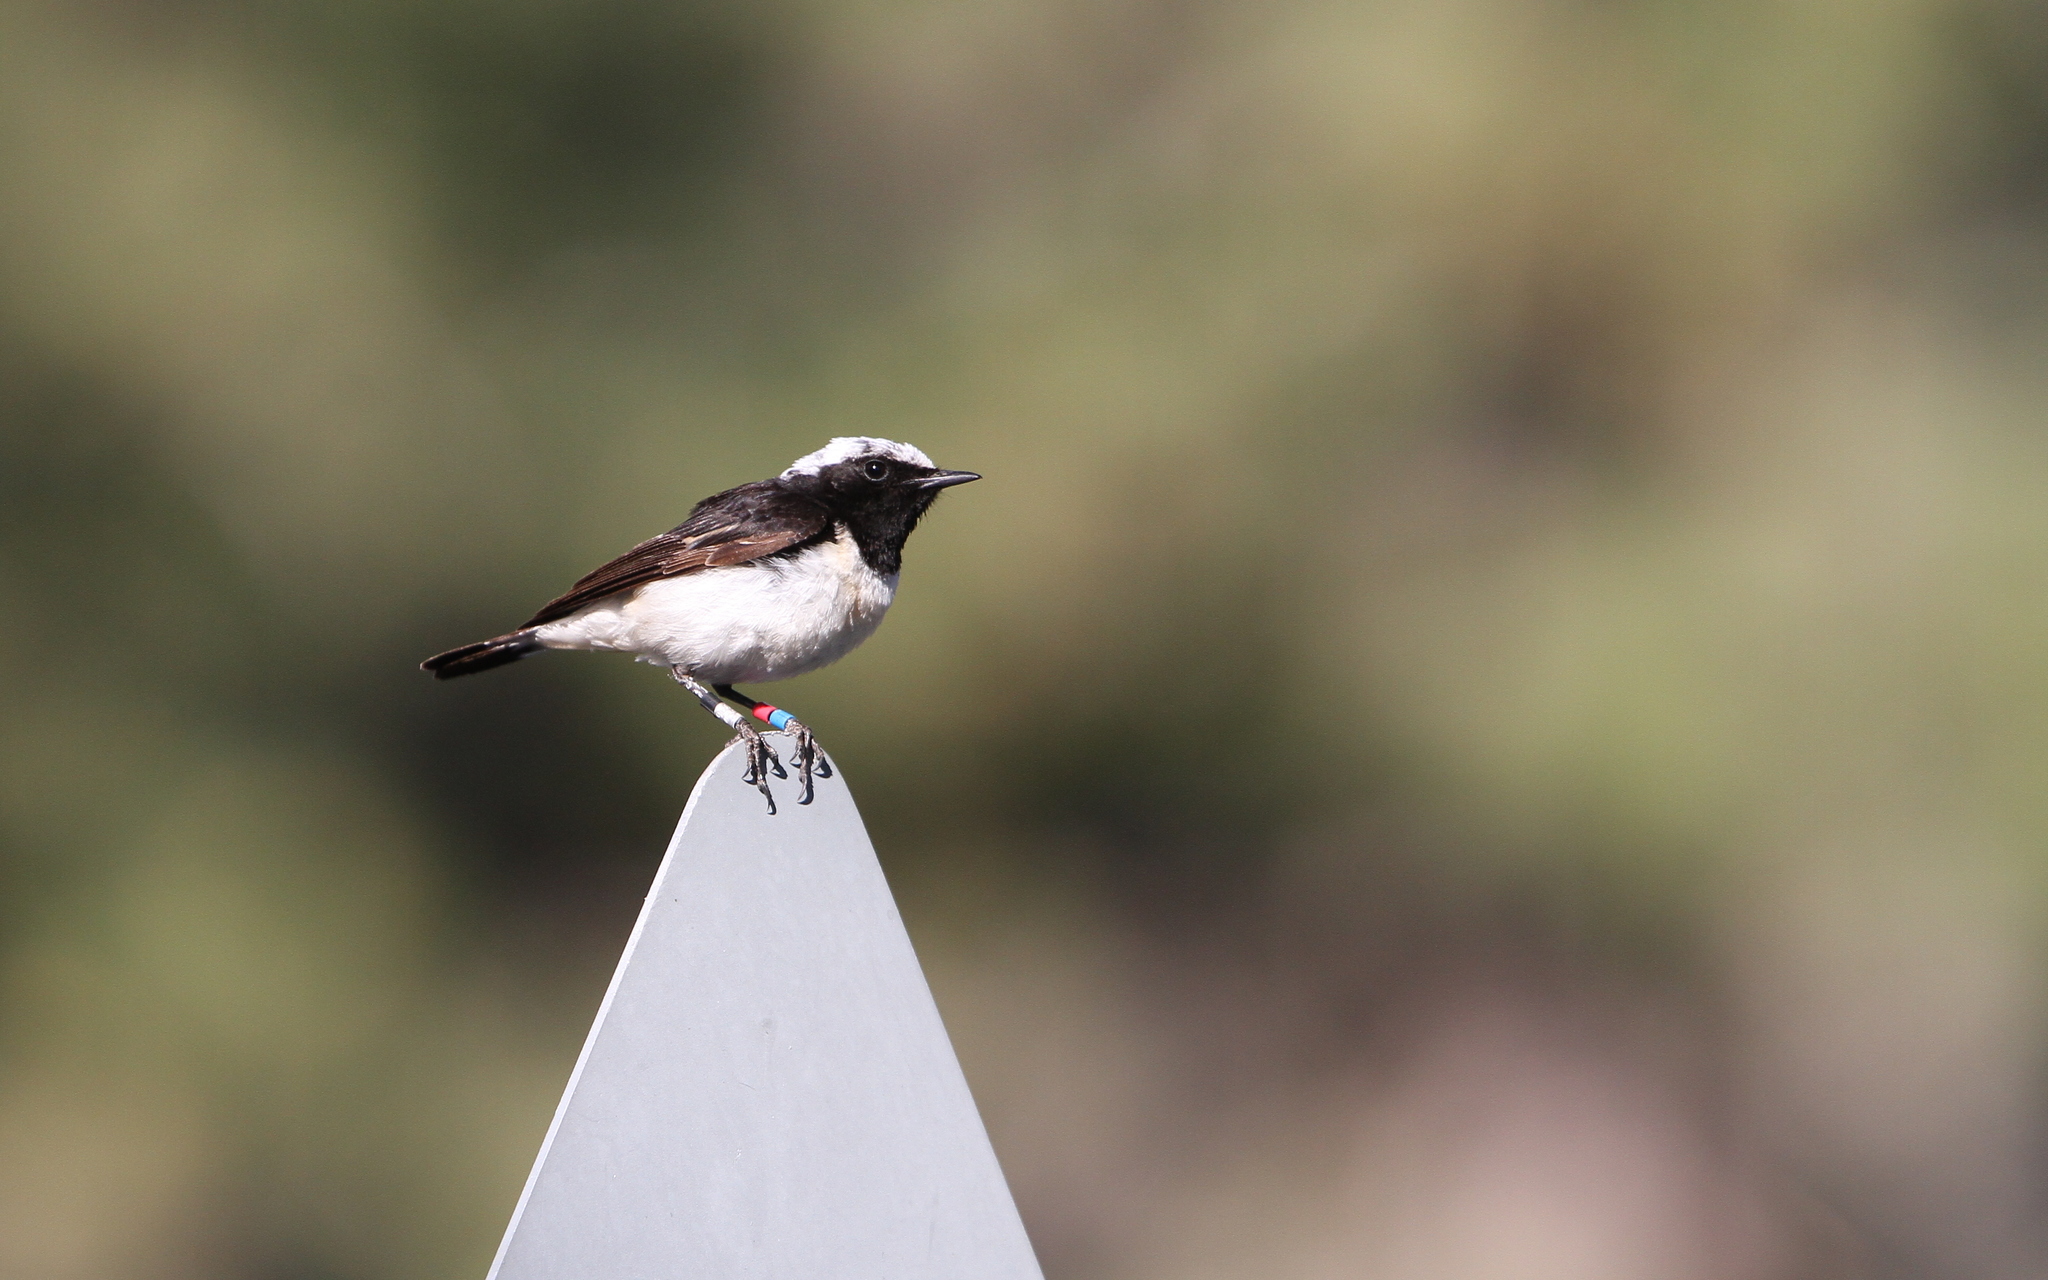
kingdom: Animalia
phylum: Chordata
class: Aves
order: Passeriformes
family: Muscicapidae
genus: Oenanthe
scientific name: Oenanthe cypriaca
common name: Cyprus wheatear
